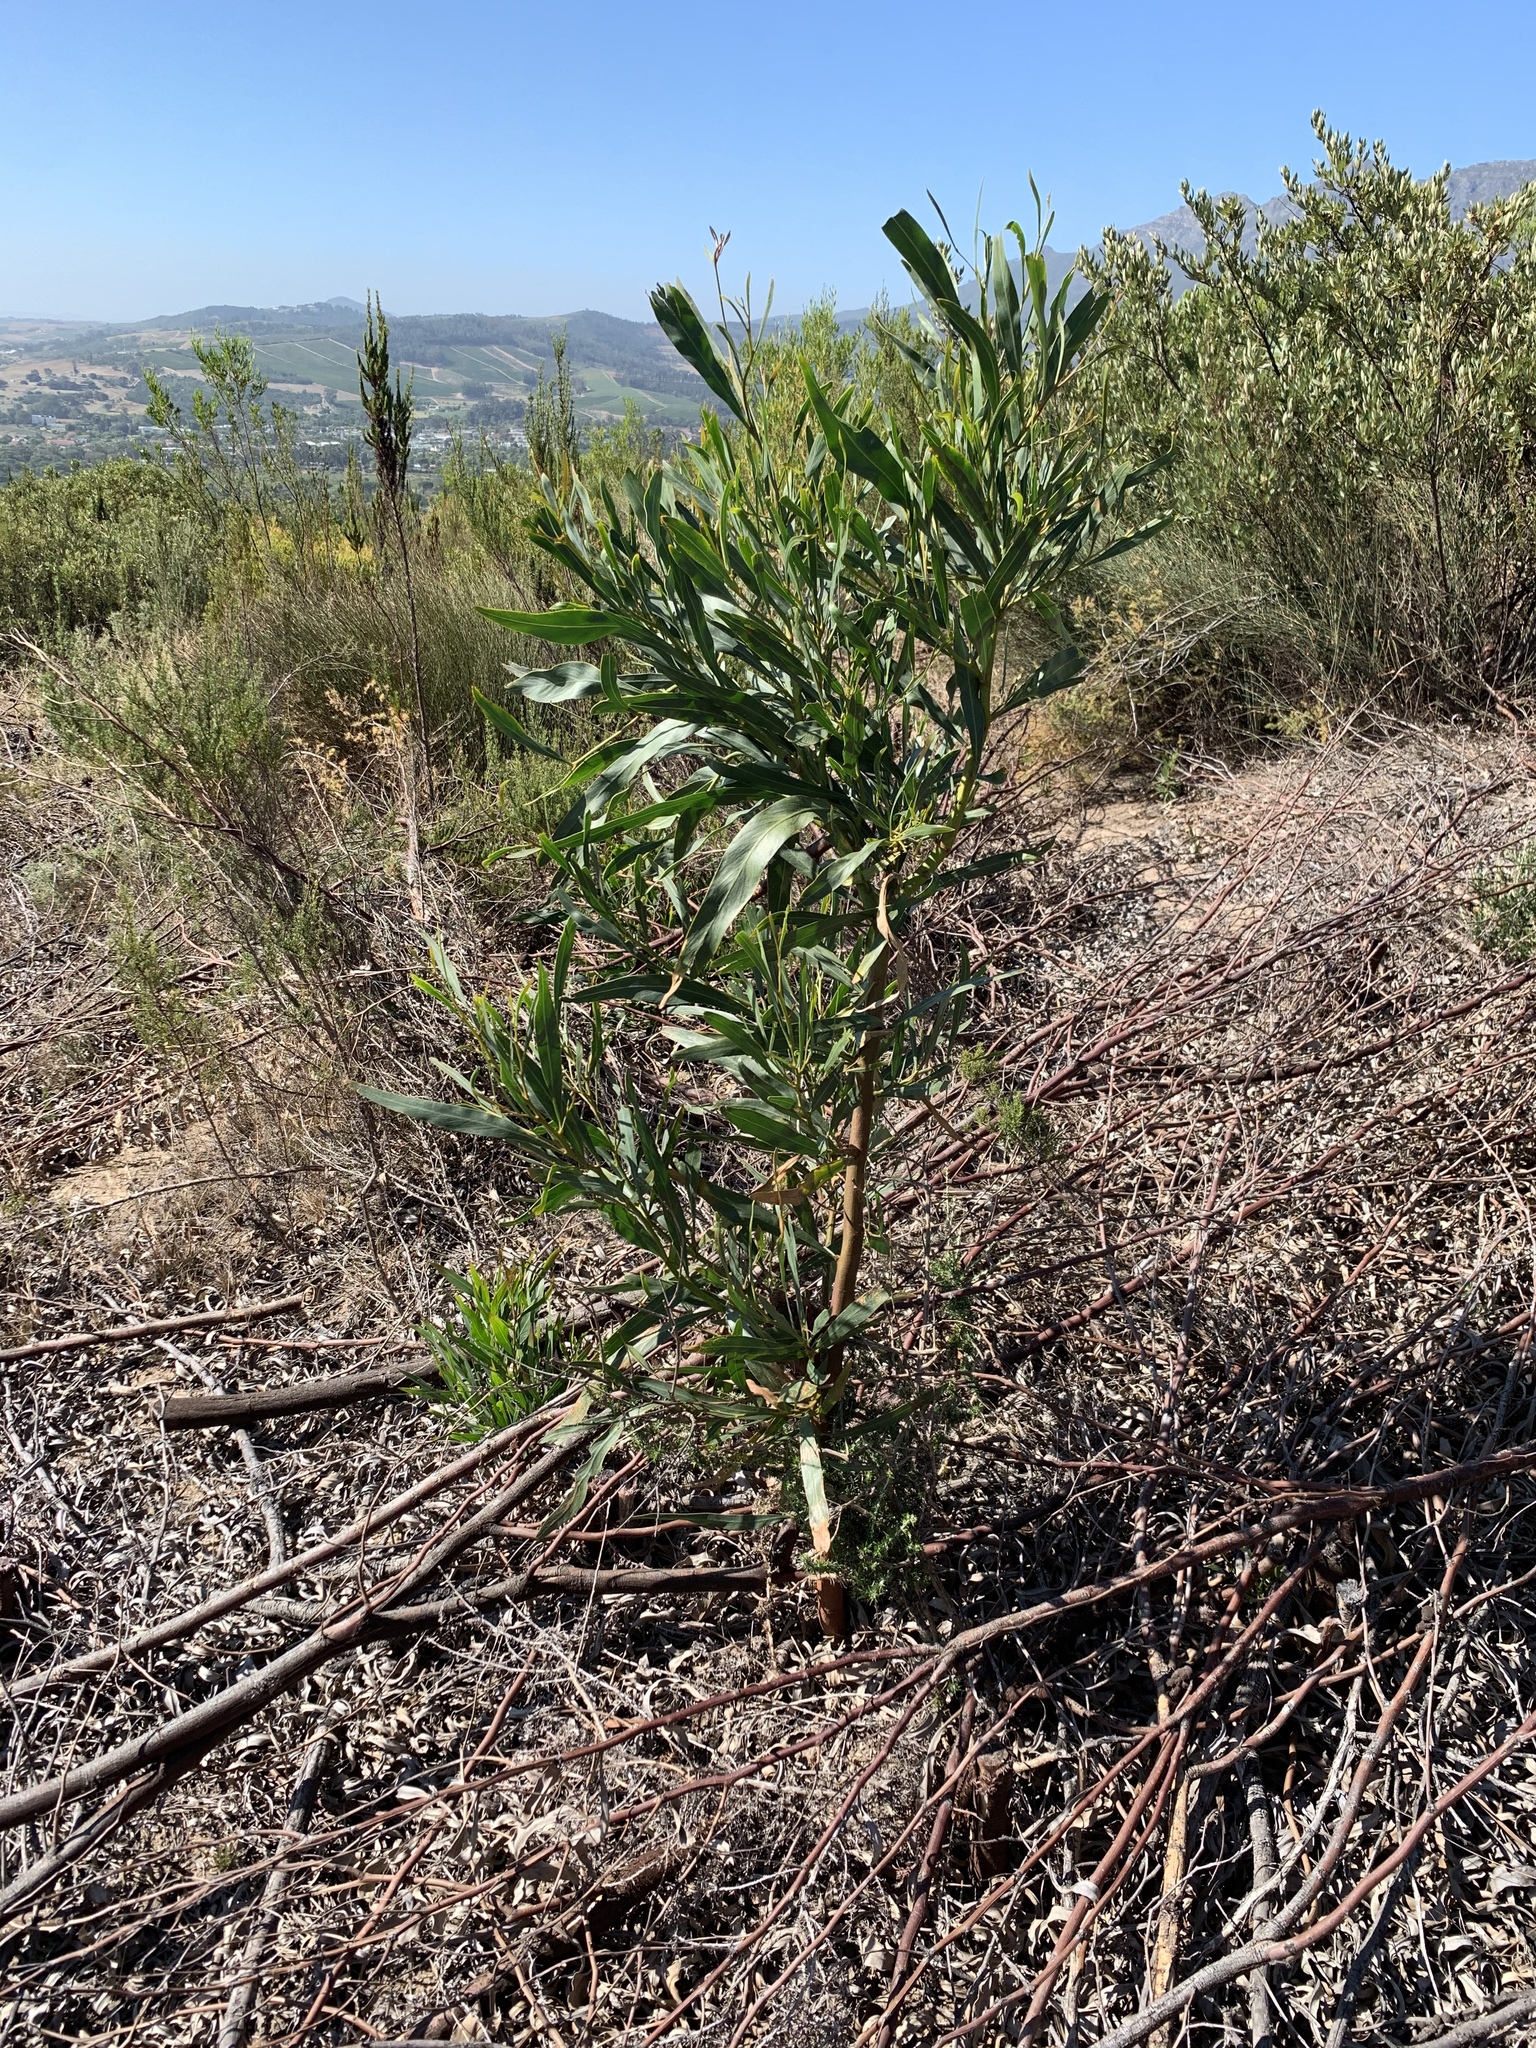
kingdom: Plantae
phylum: Tracheophyta
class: Magnoliopsida
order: Fabales
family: Fabaceae
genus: Acacia
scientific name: Acacia saligna
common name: Orange wattle
